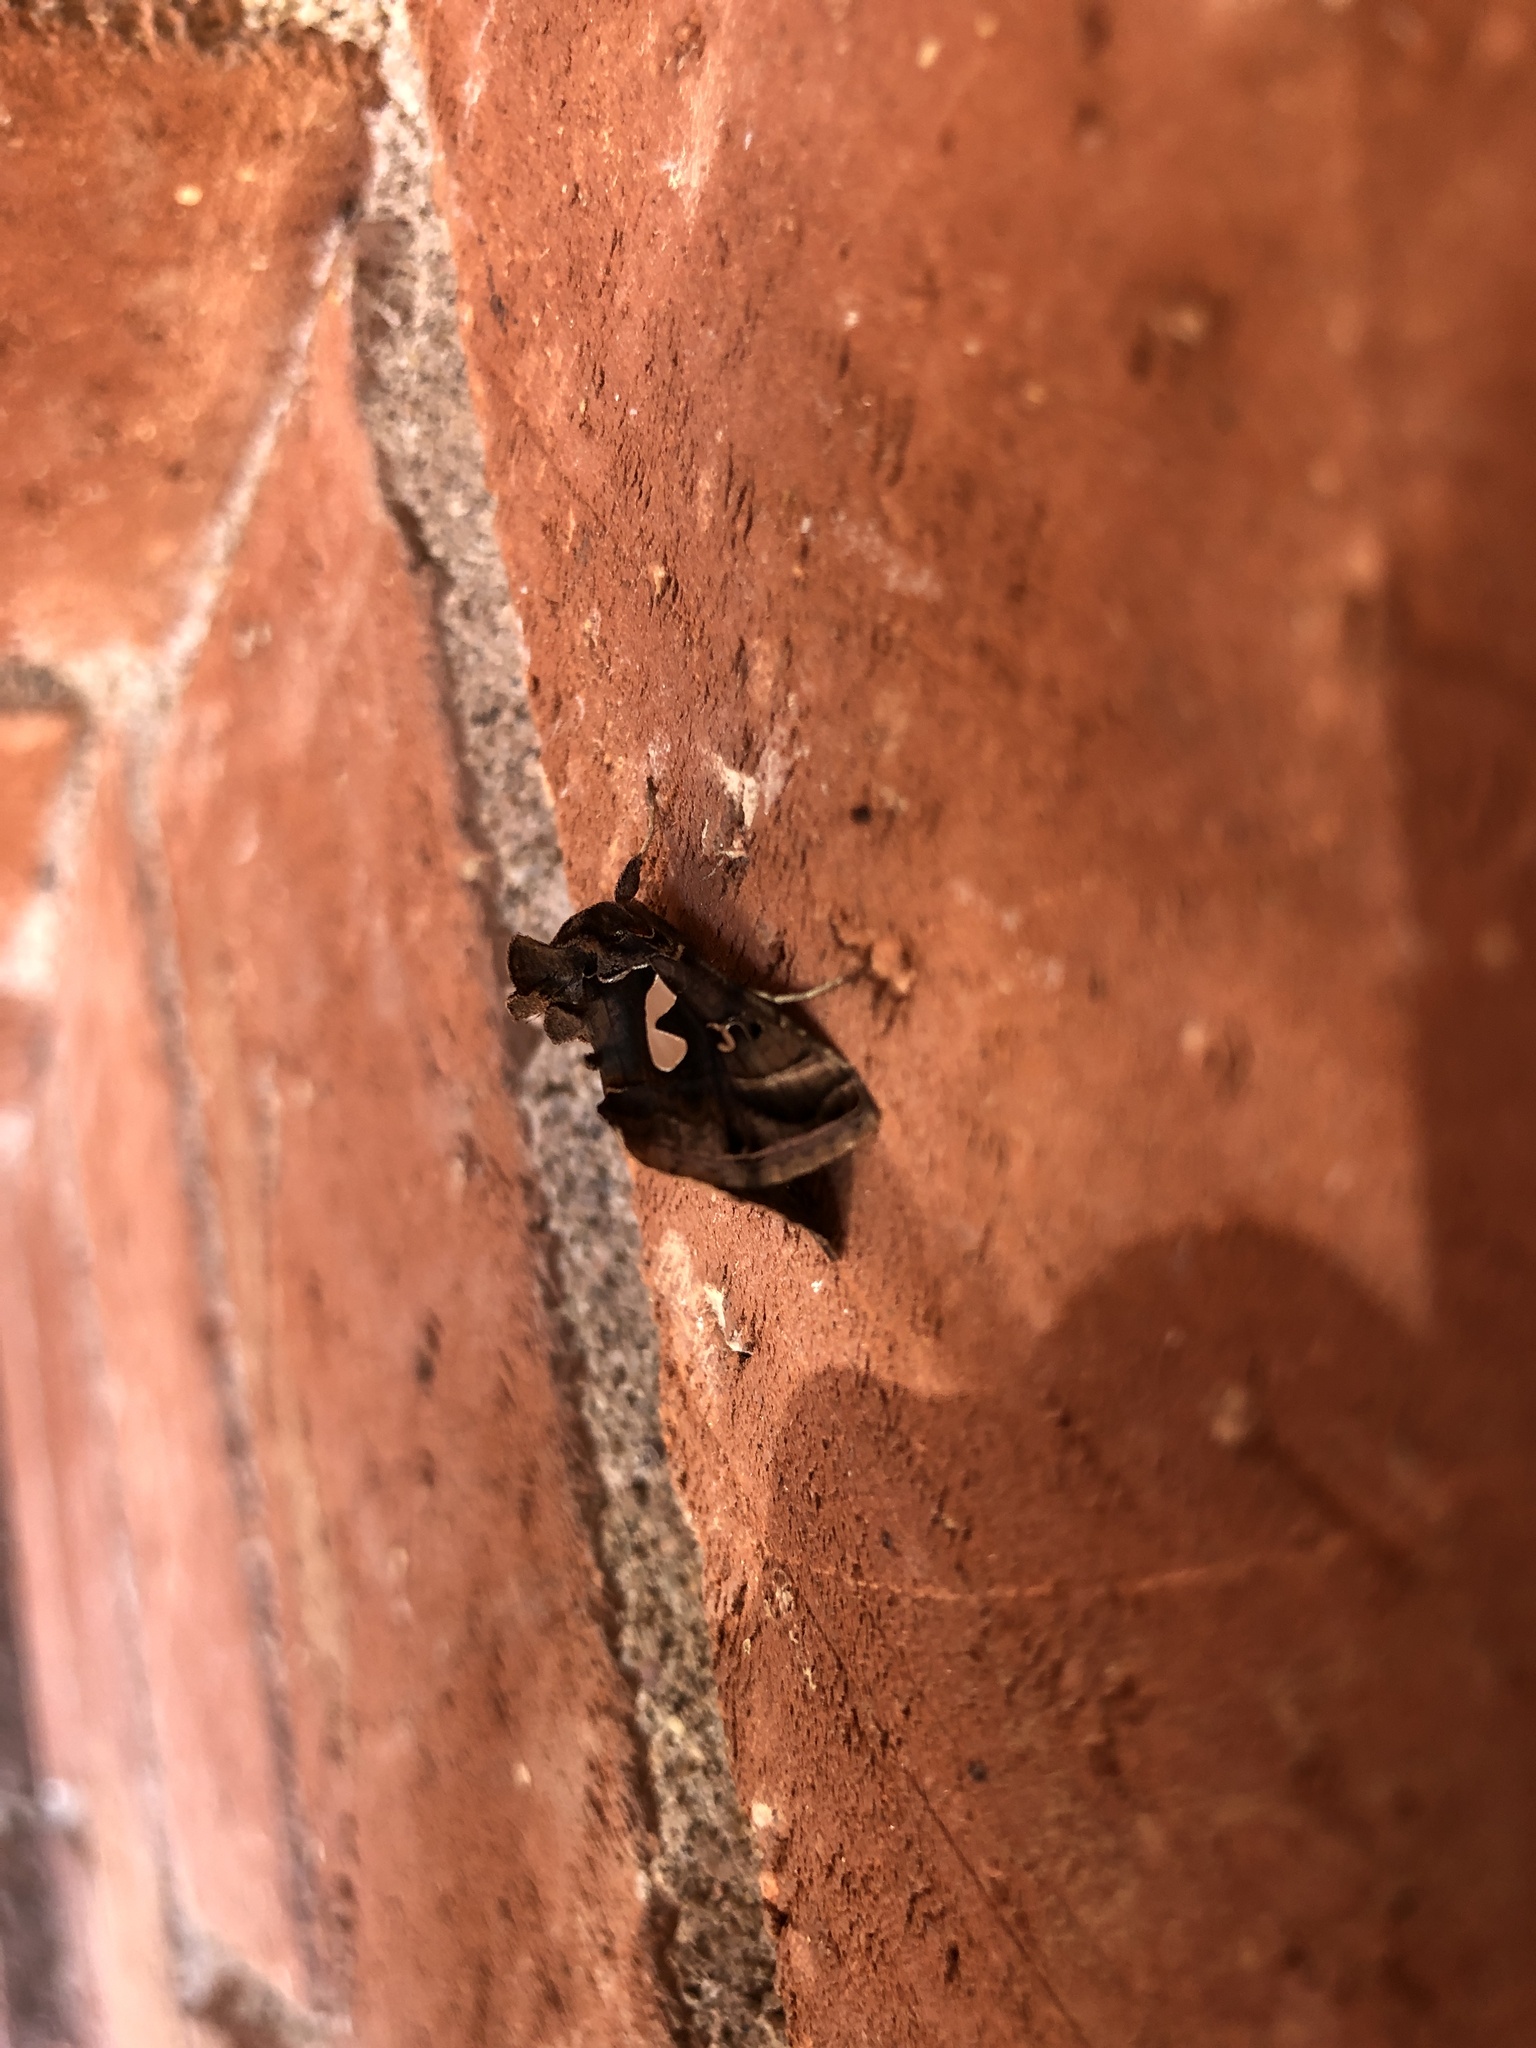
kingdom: Animalia
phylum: Arthropoda
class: Insecta
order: Lepidoptera
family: Noctuidae
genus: Megalographa
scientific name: Megalographa biloba
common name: Cutworm
